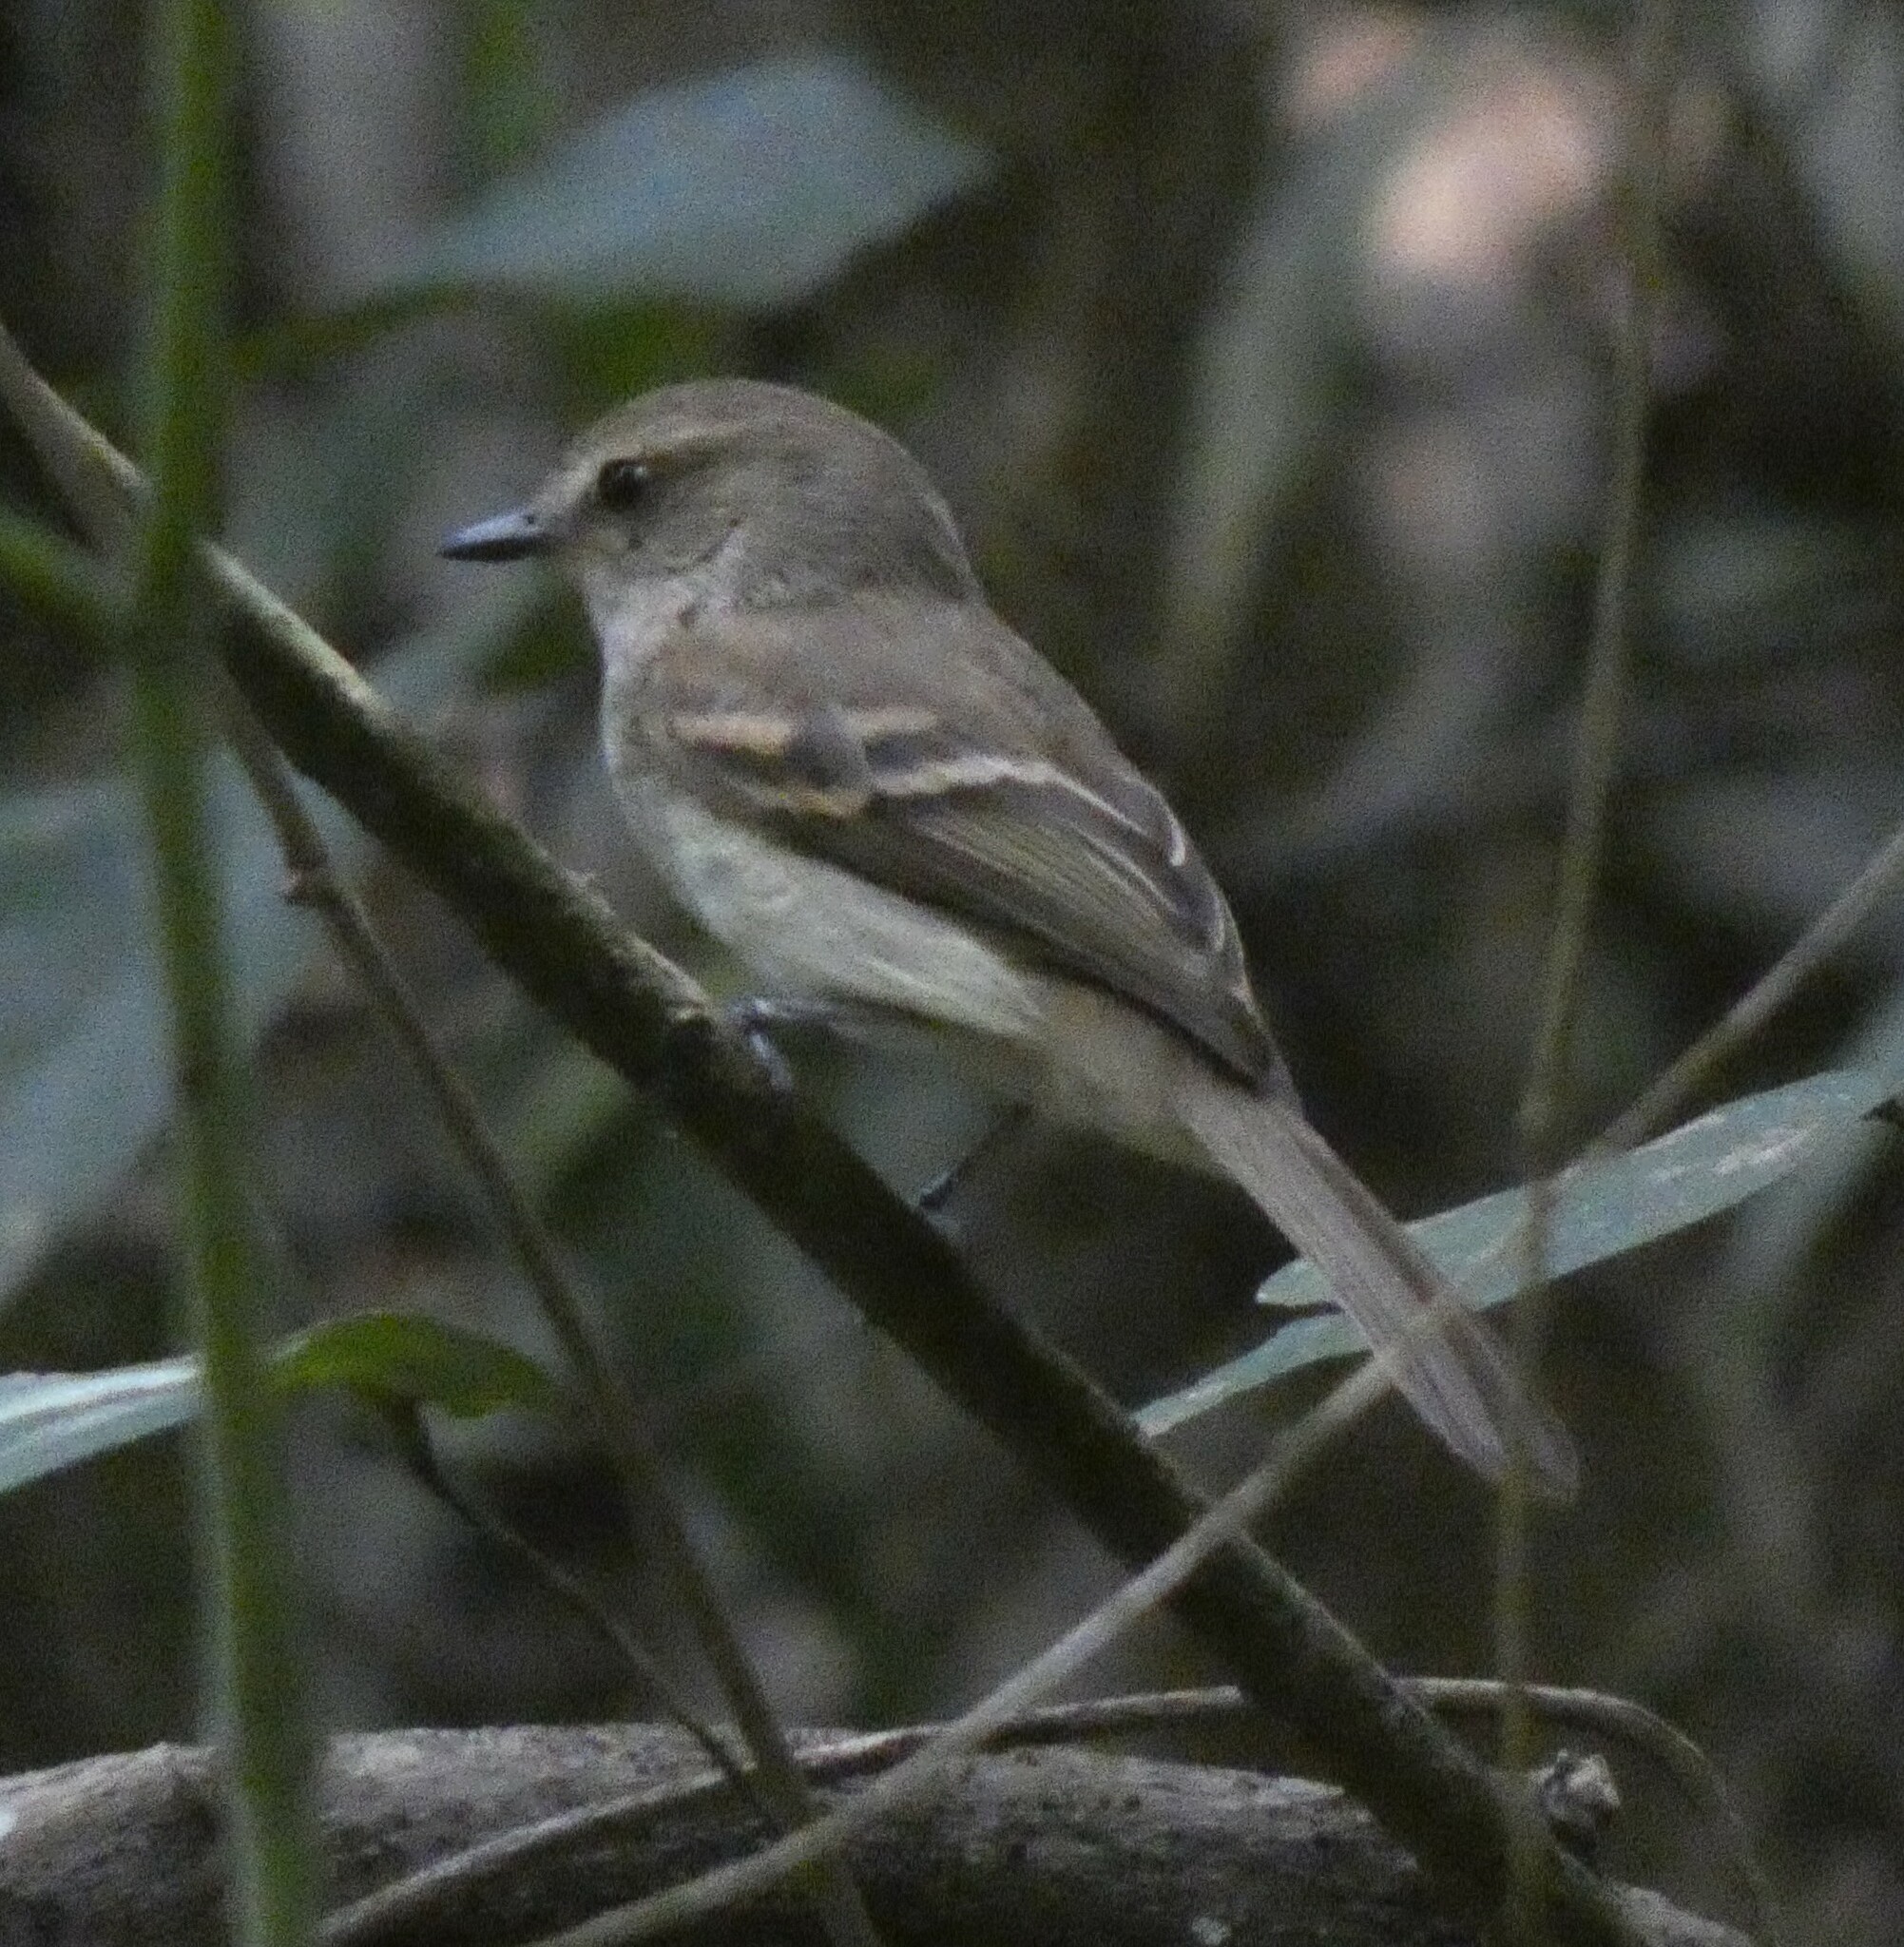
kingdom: Animalia
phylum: Chordata
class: Aves
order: Passeriformes
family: Tyrannidae
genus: Cnemotriccus
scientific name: Cnemotriccus fuscatus
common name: Fuscous flycatcher
